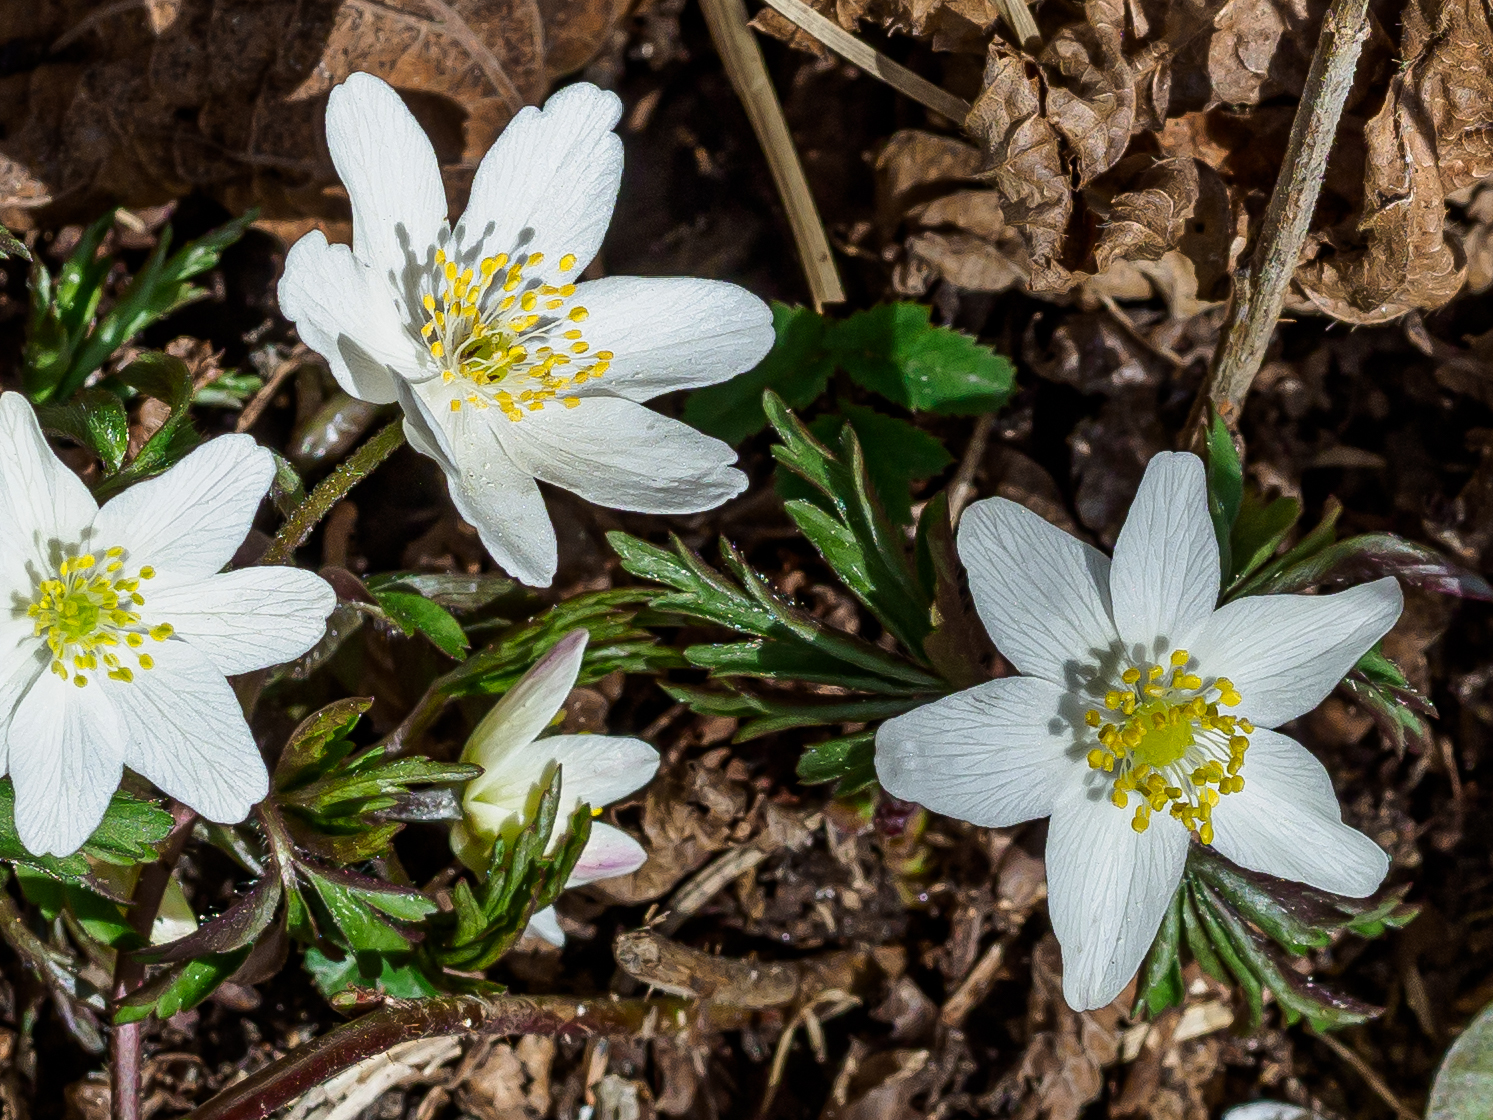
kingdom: Plantae
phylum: Tracheophyta
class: Magnoliopsida
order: Ranunculales
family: Ranunculaceae
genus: Anemone
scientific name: Anemone nemorosa
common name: Wood anemone
